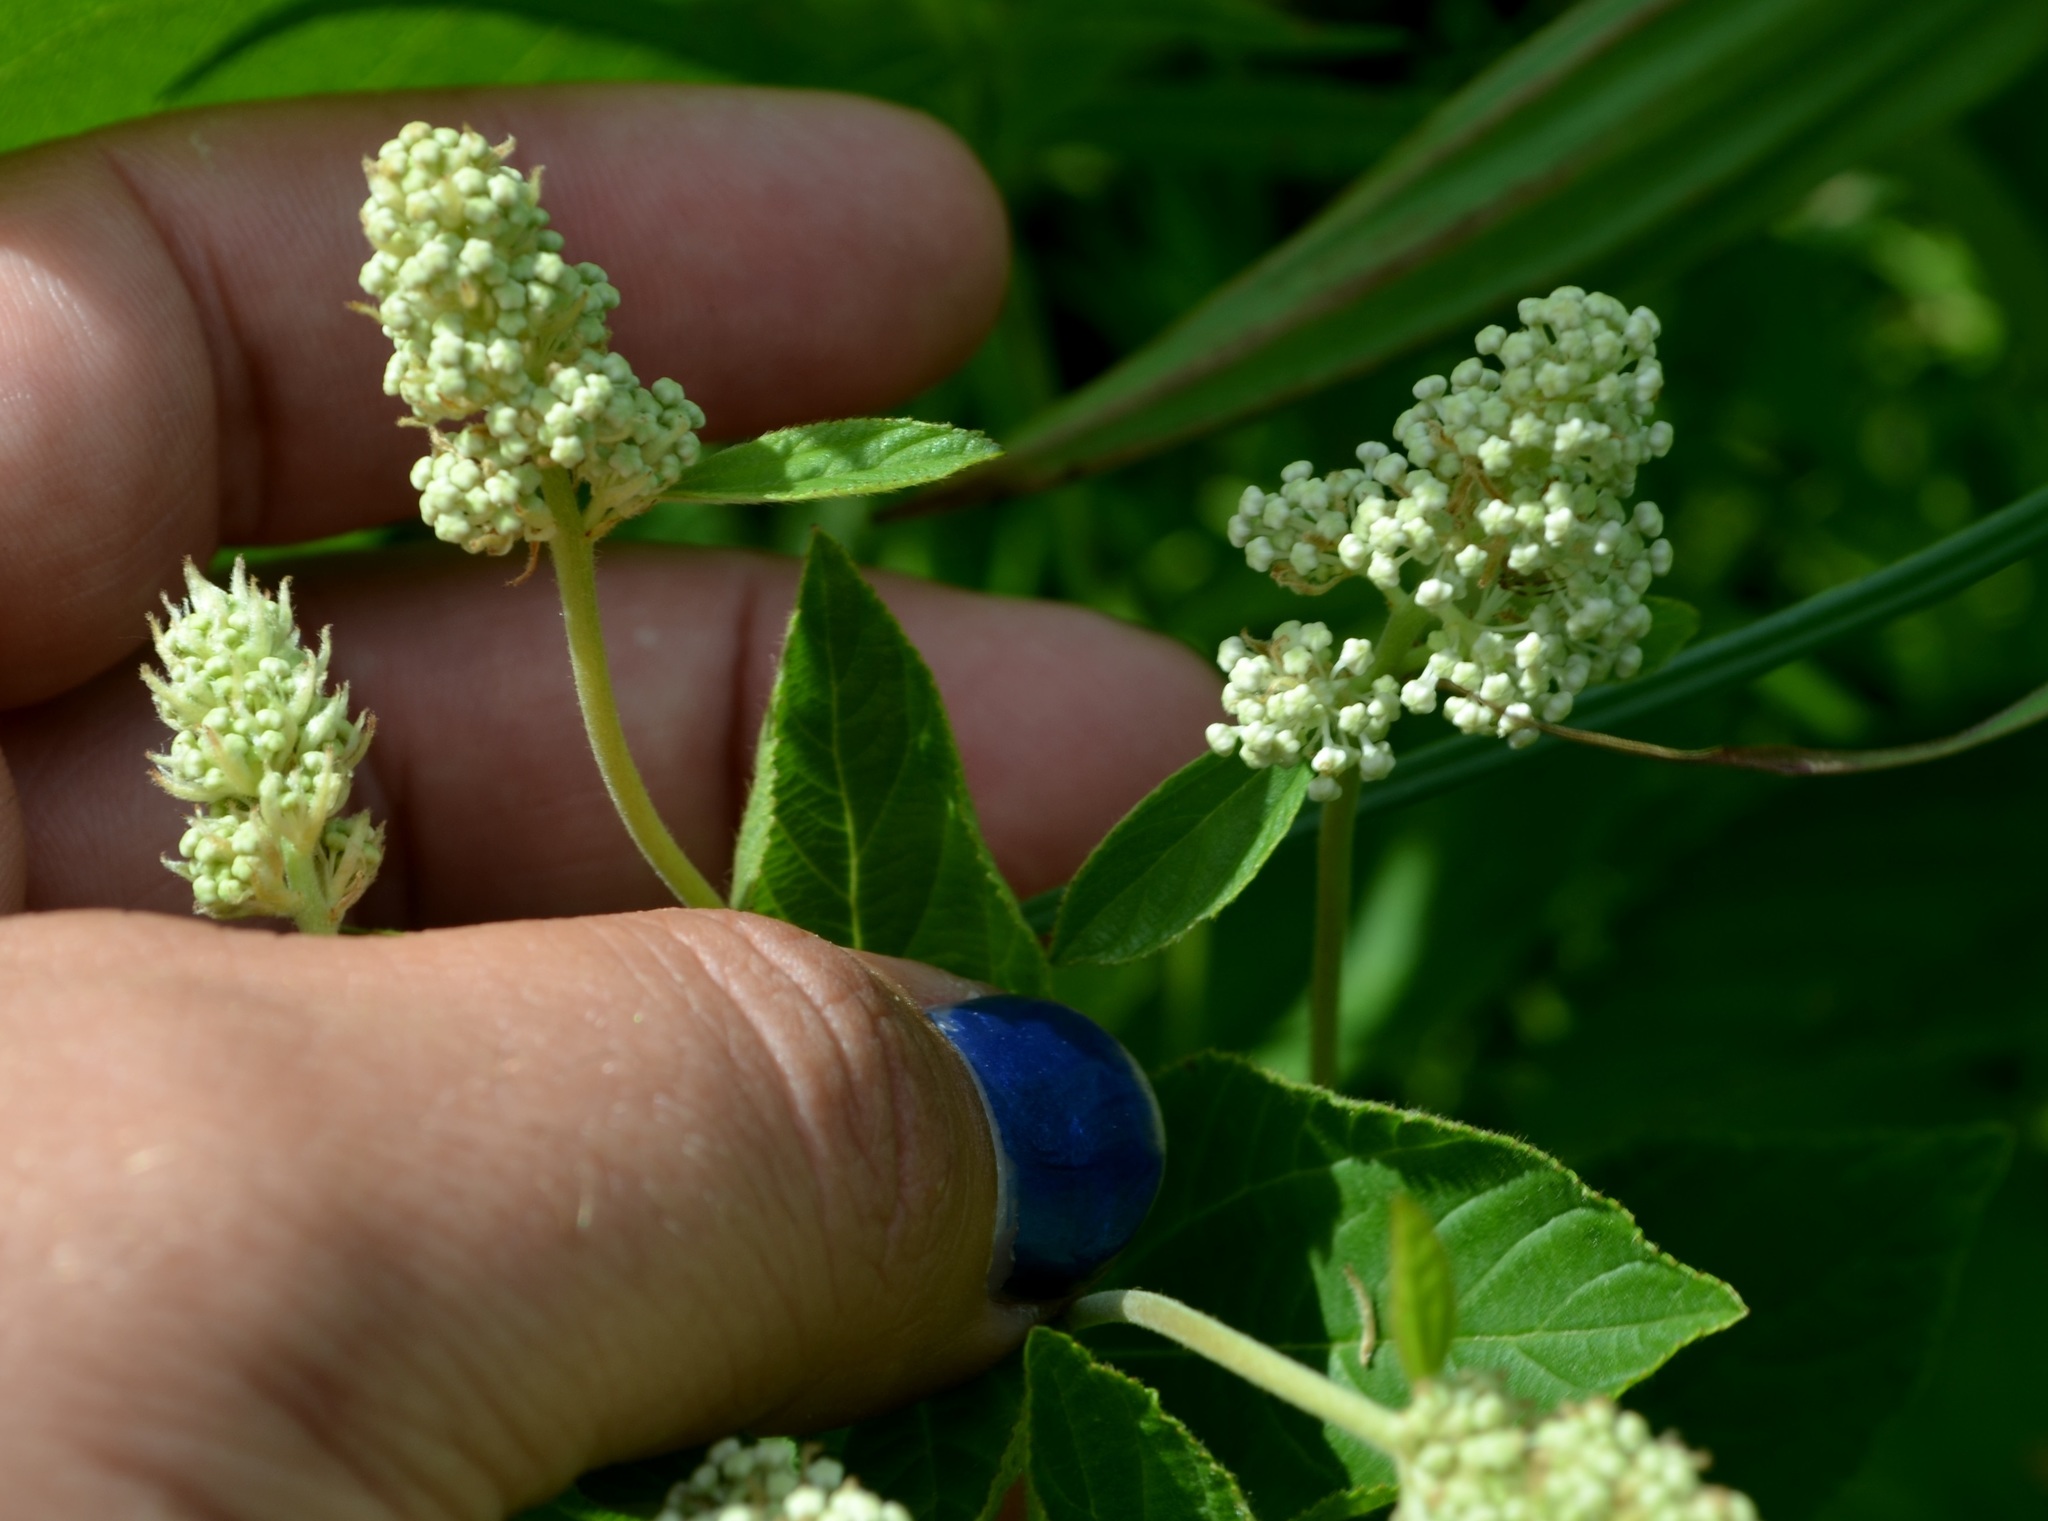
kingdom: Plantae
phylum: Tracheophyta
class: Magnoliopsida
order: Rosales
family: Rhamnaceae
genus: Ceanothus
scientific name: Ceanothus americanus
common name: Redroot
